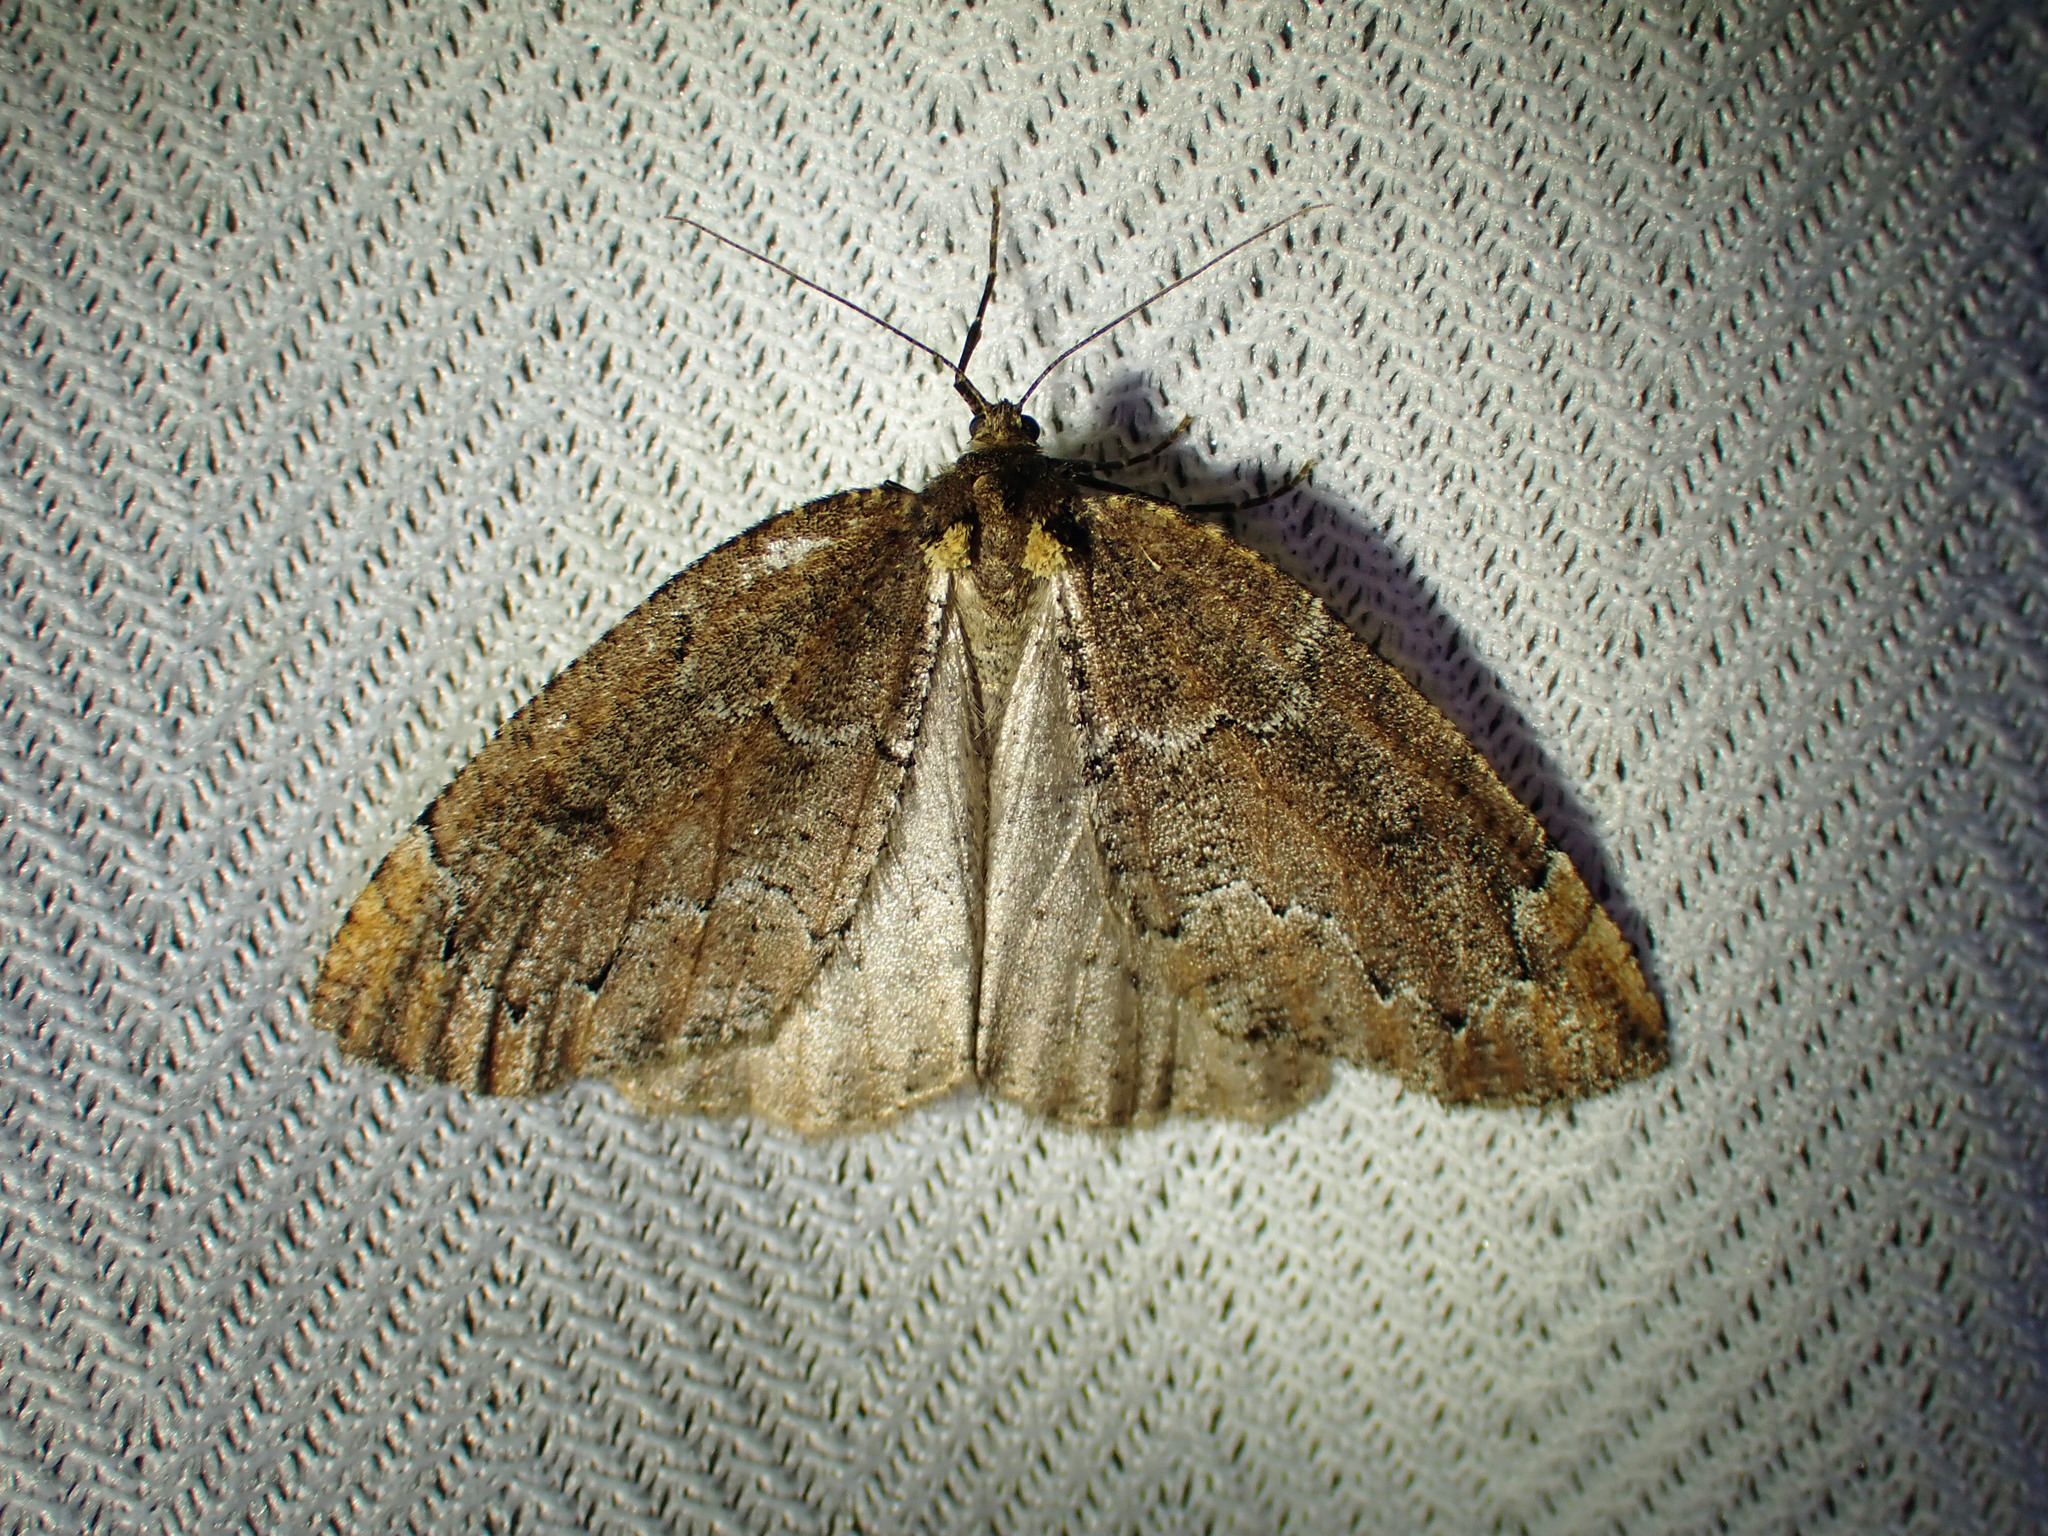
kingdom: Animalia
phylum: Arthropoda
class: Insecta
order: Lepidoptera
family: Geometridae
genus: Spodolepis
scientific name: Spodolepis substriataria
